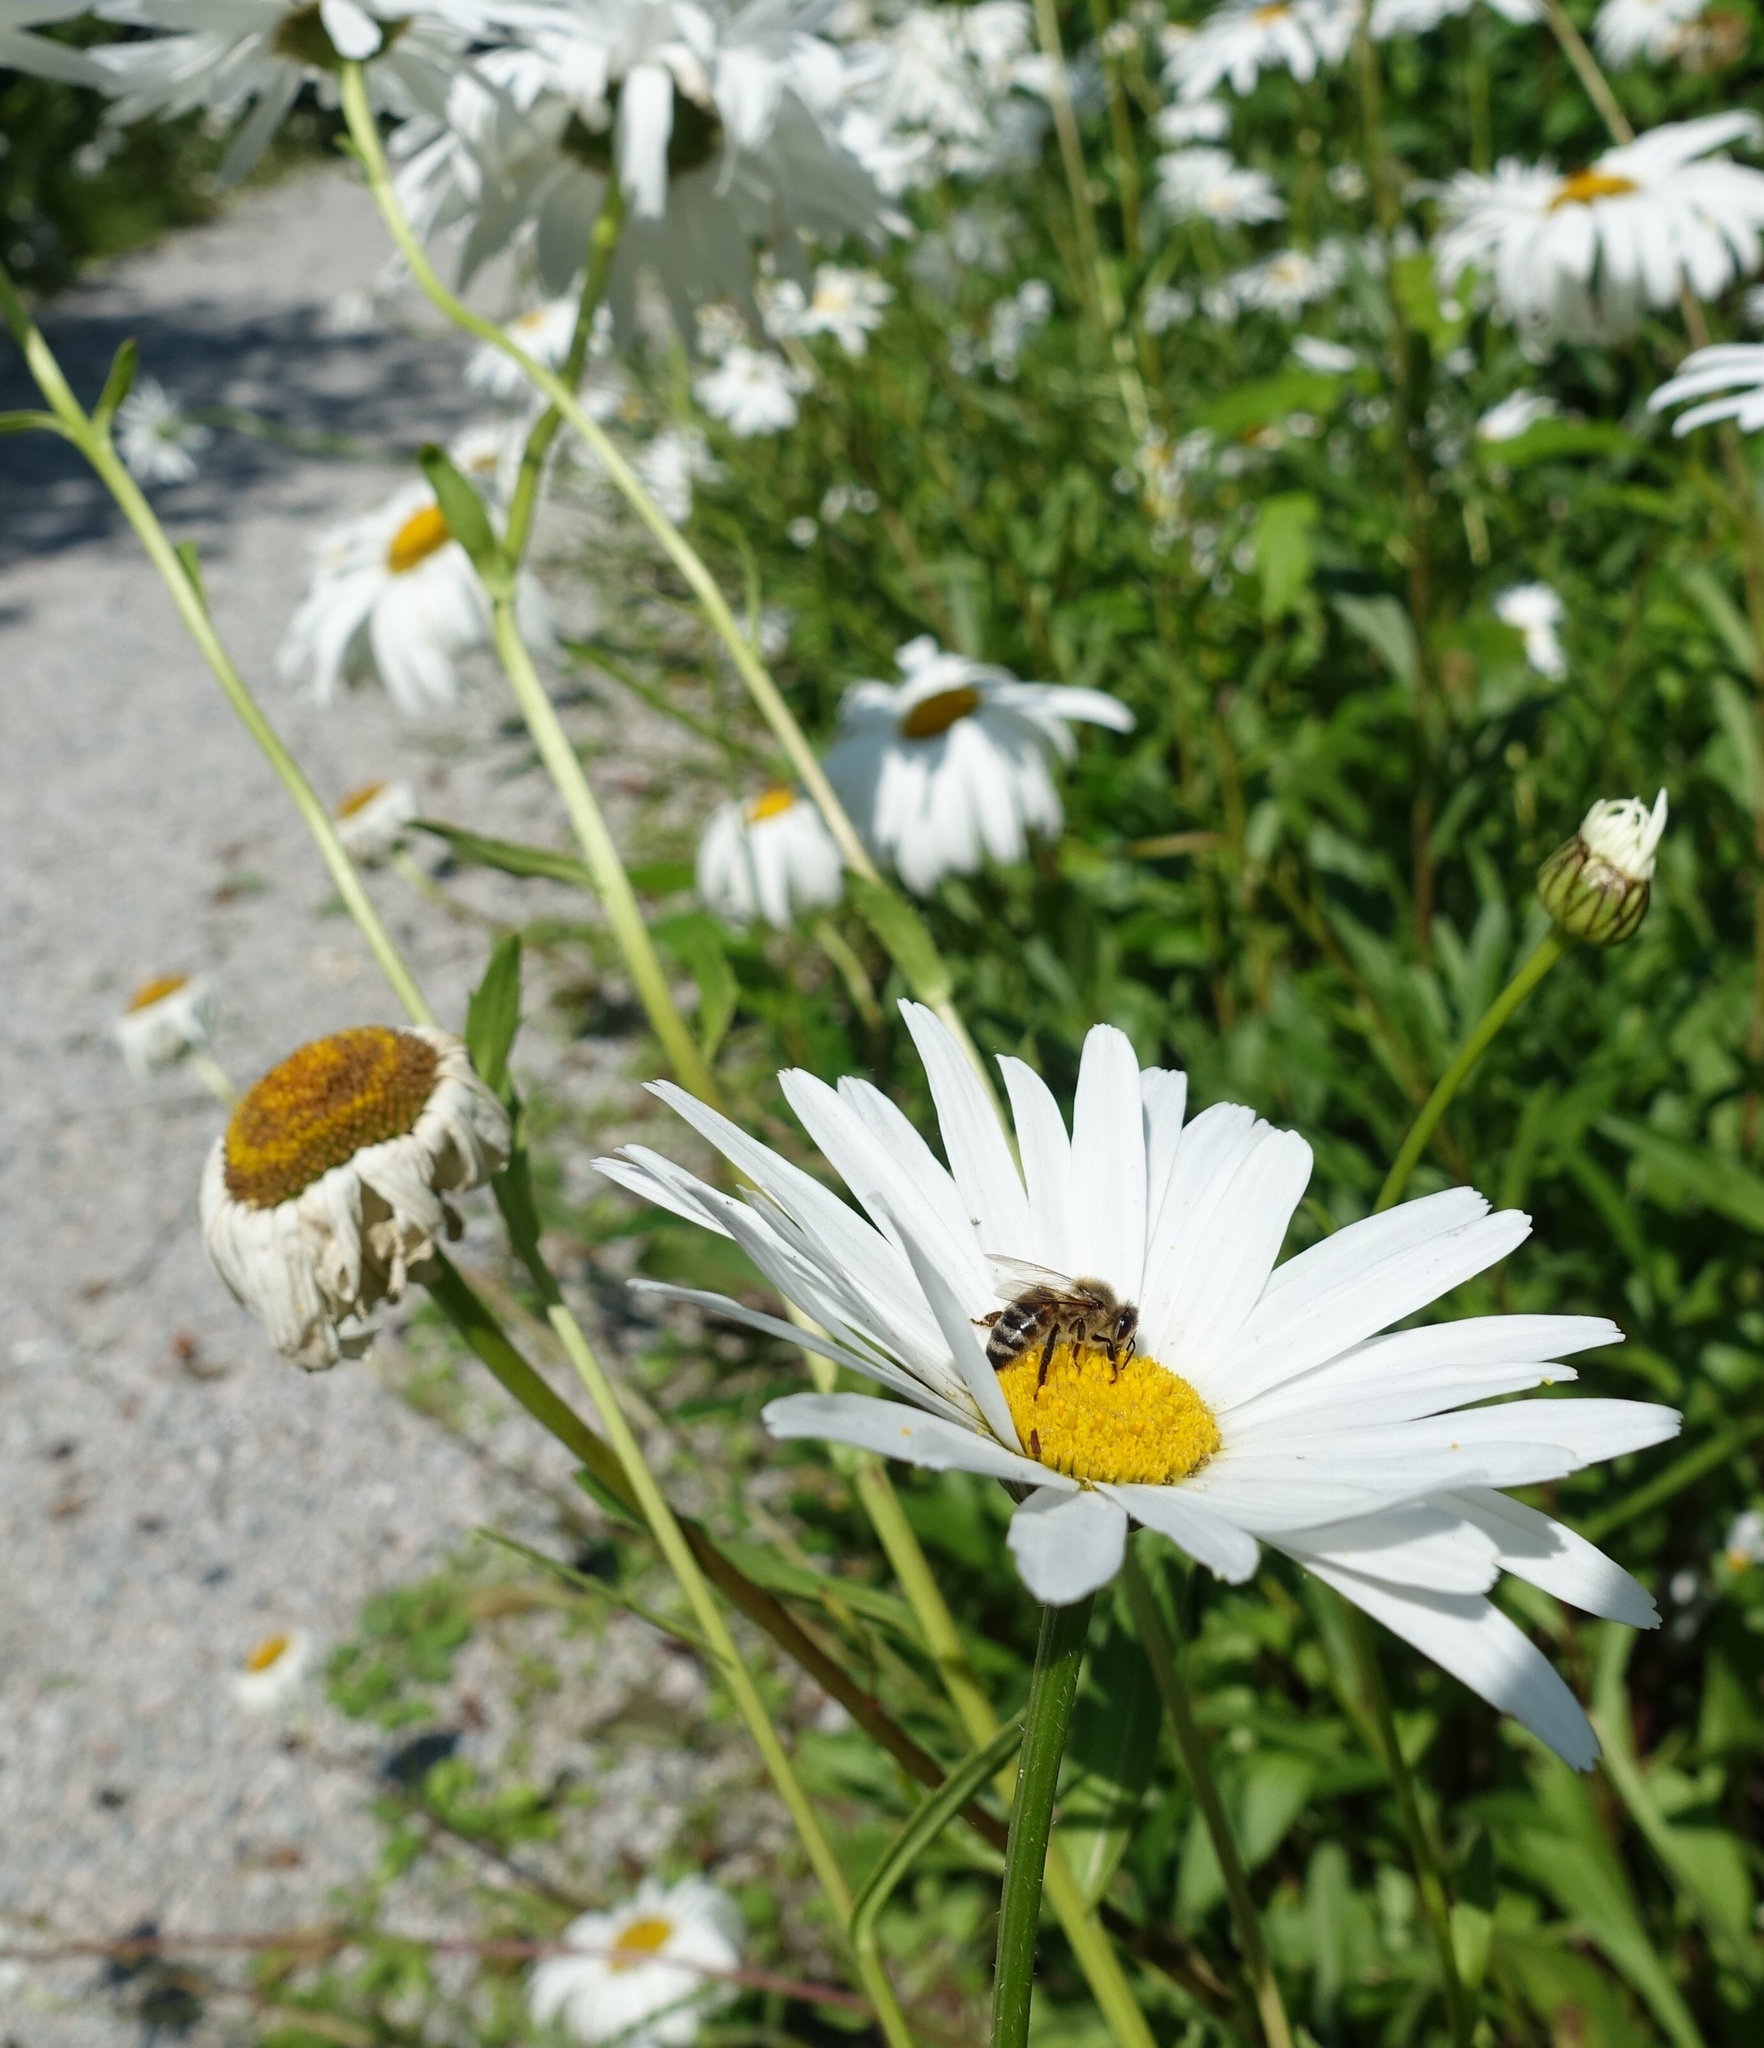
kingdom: Animalia
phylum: Arthropoda
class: Insecta
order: Hymenoptera
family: Apidae
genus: Apis
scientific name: Apis mellifera
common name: Honey bee
